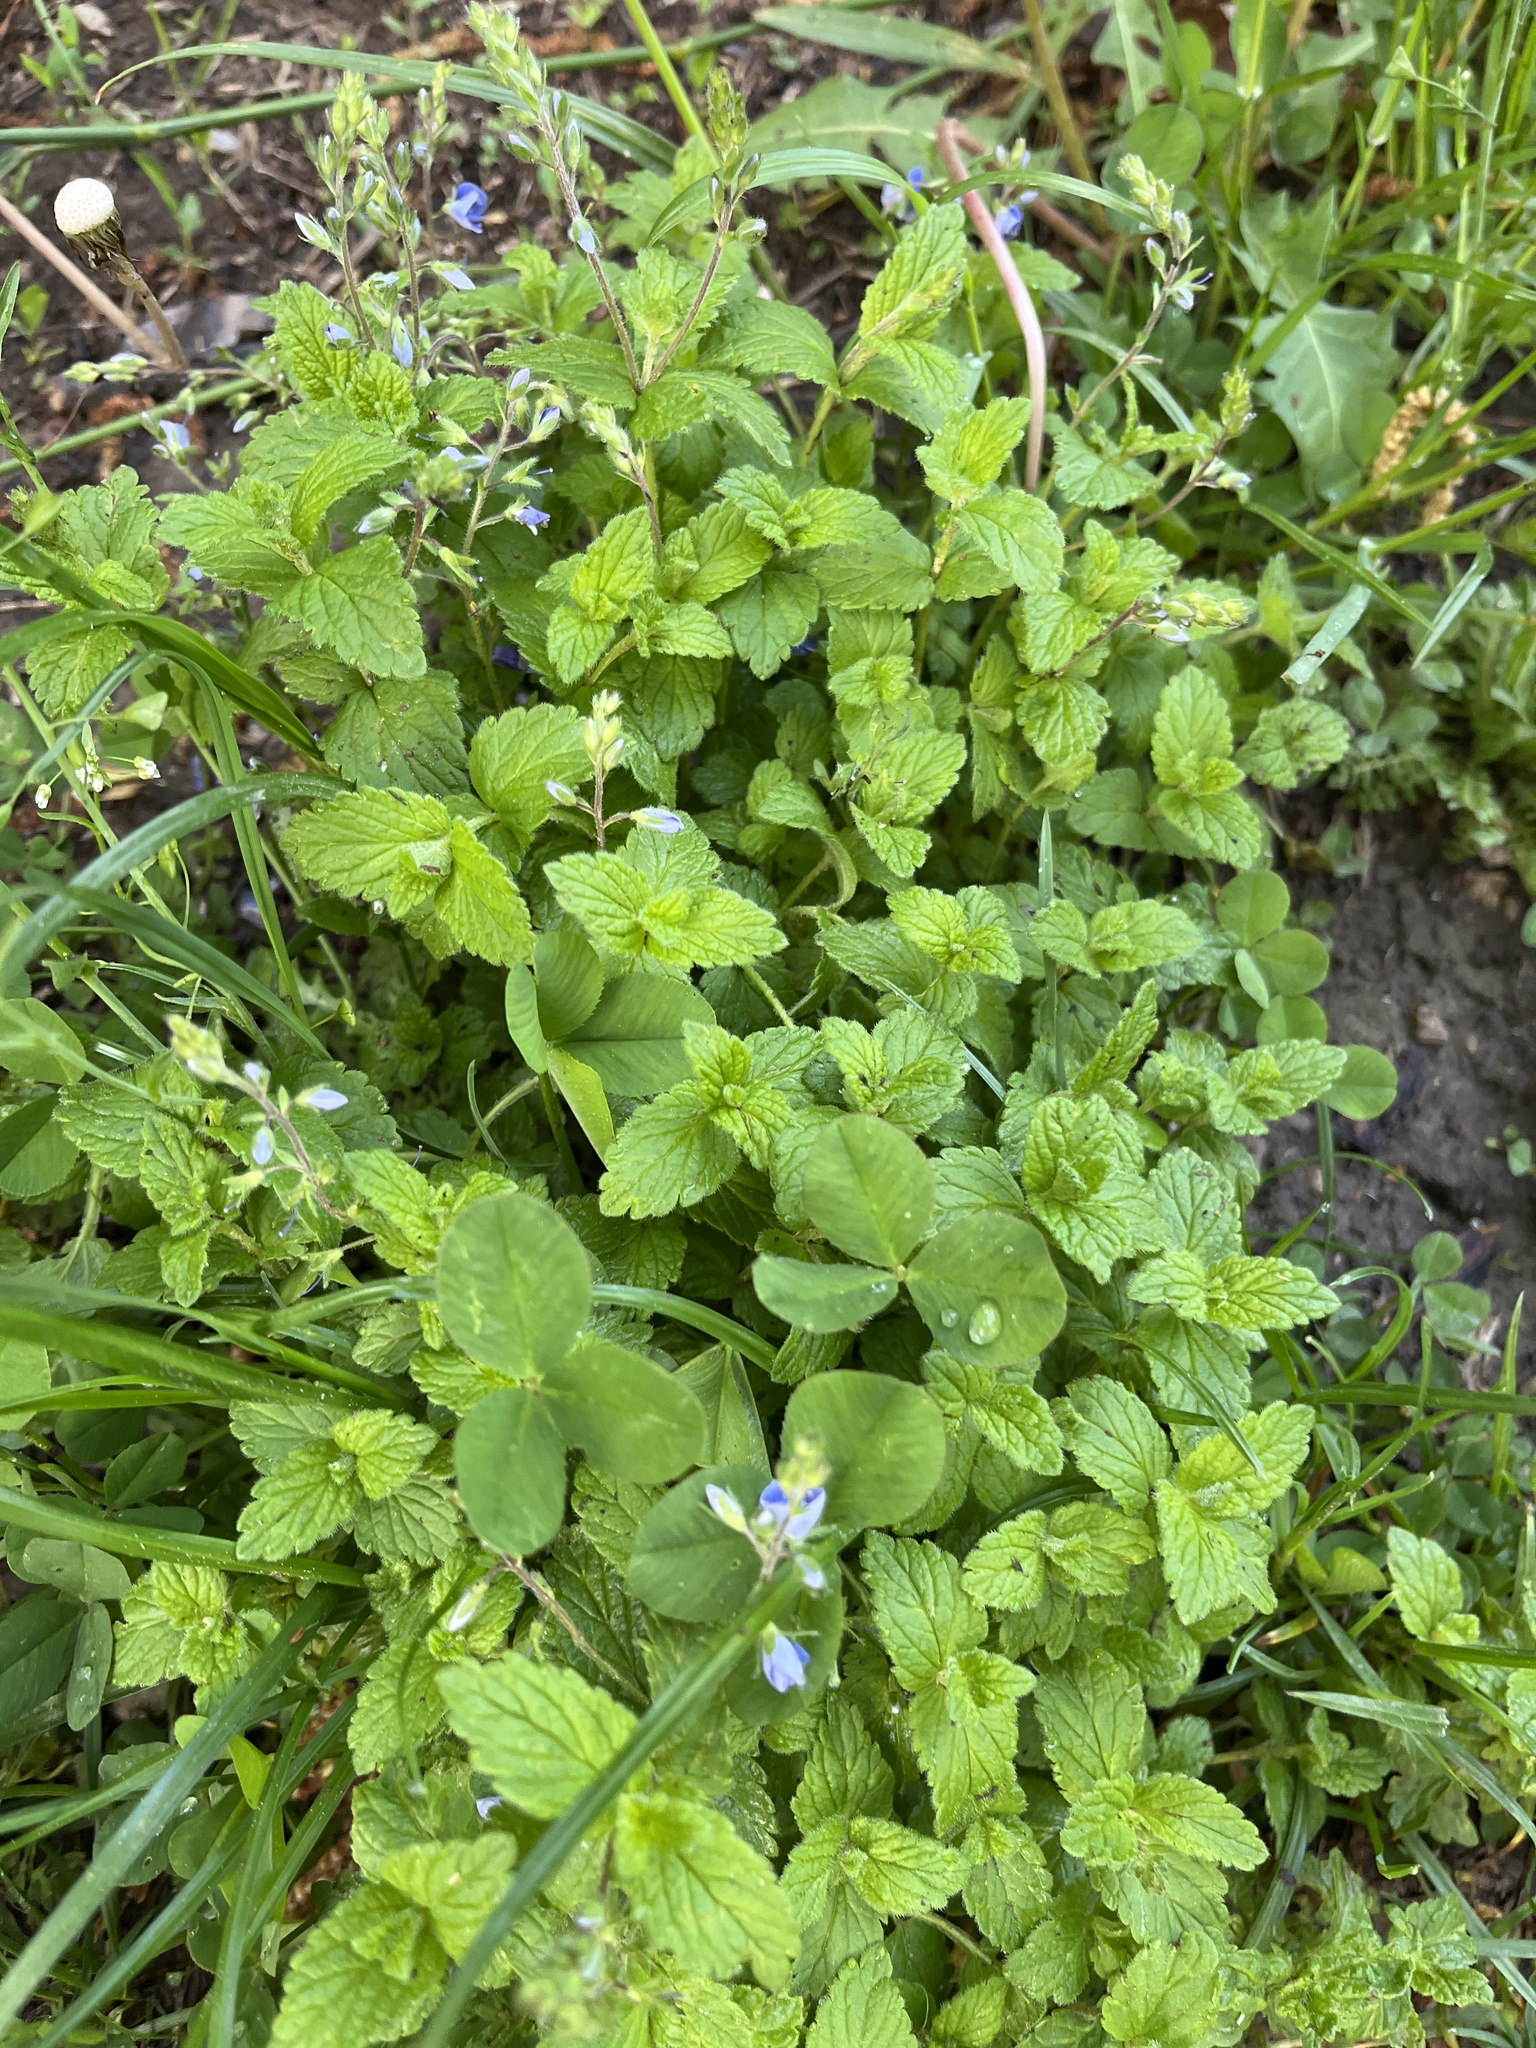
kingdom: Plantae
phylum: Tracheophyta
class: Magnoliopsida
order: Lamiales
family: Plantaginaceae
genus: Veronica
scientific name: Veronica chamaedrys
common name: Germander speedwell
